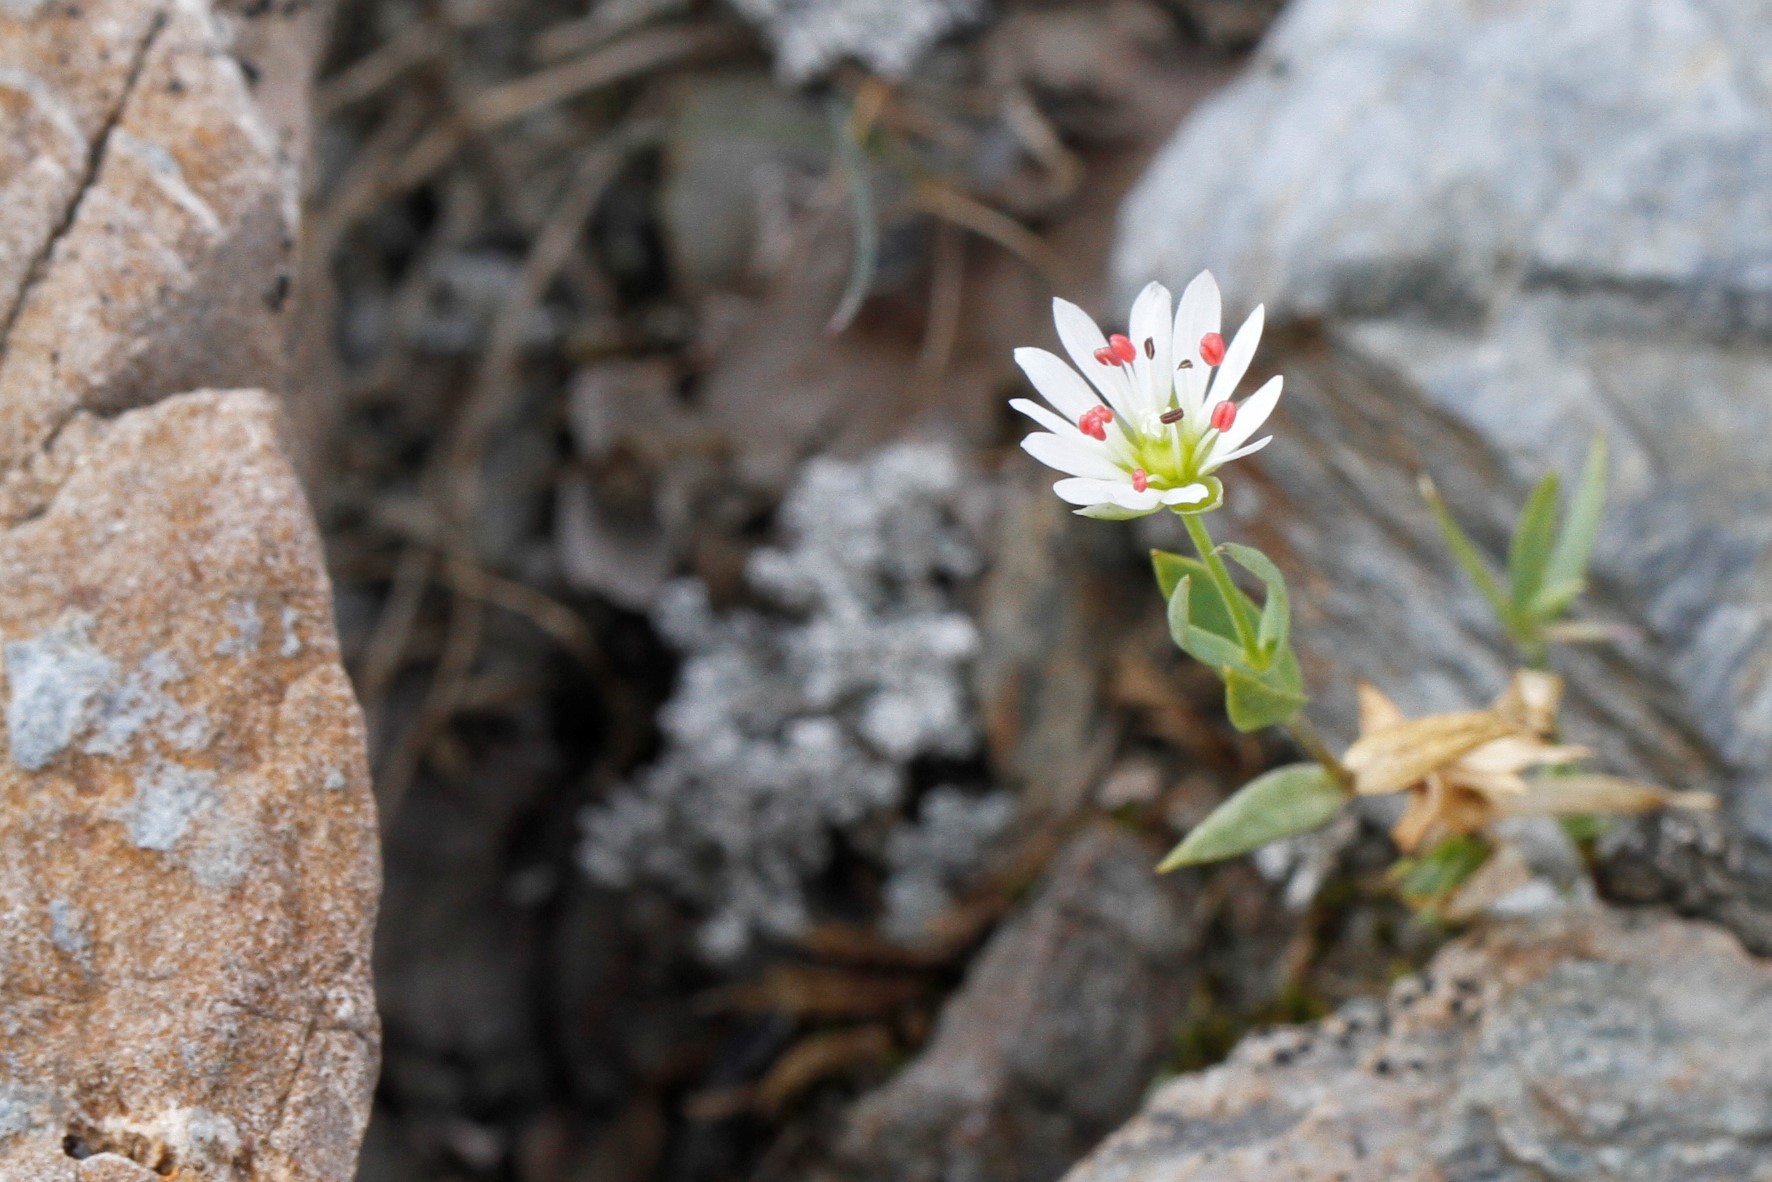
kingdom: Plantae
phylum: Tracheophyta
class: Magnoliopsida
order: Caryophyllales
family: Caryophyllaceae
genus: Stellaria
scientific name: Stellaria longipes
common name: Goldie's starwort
